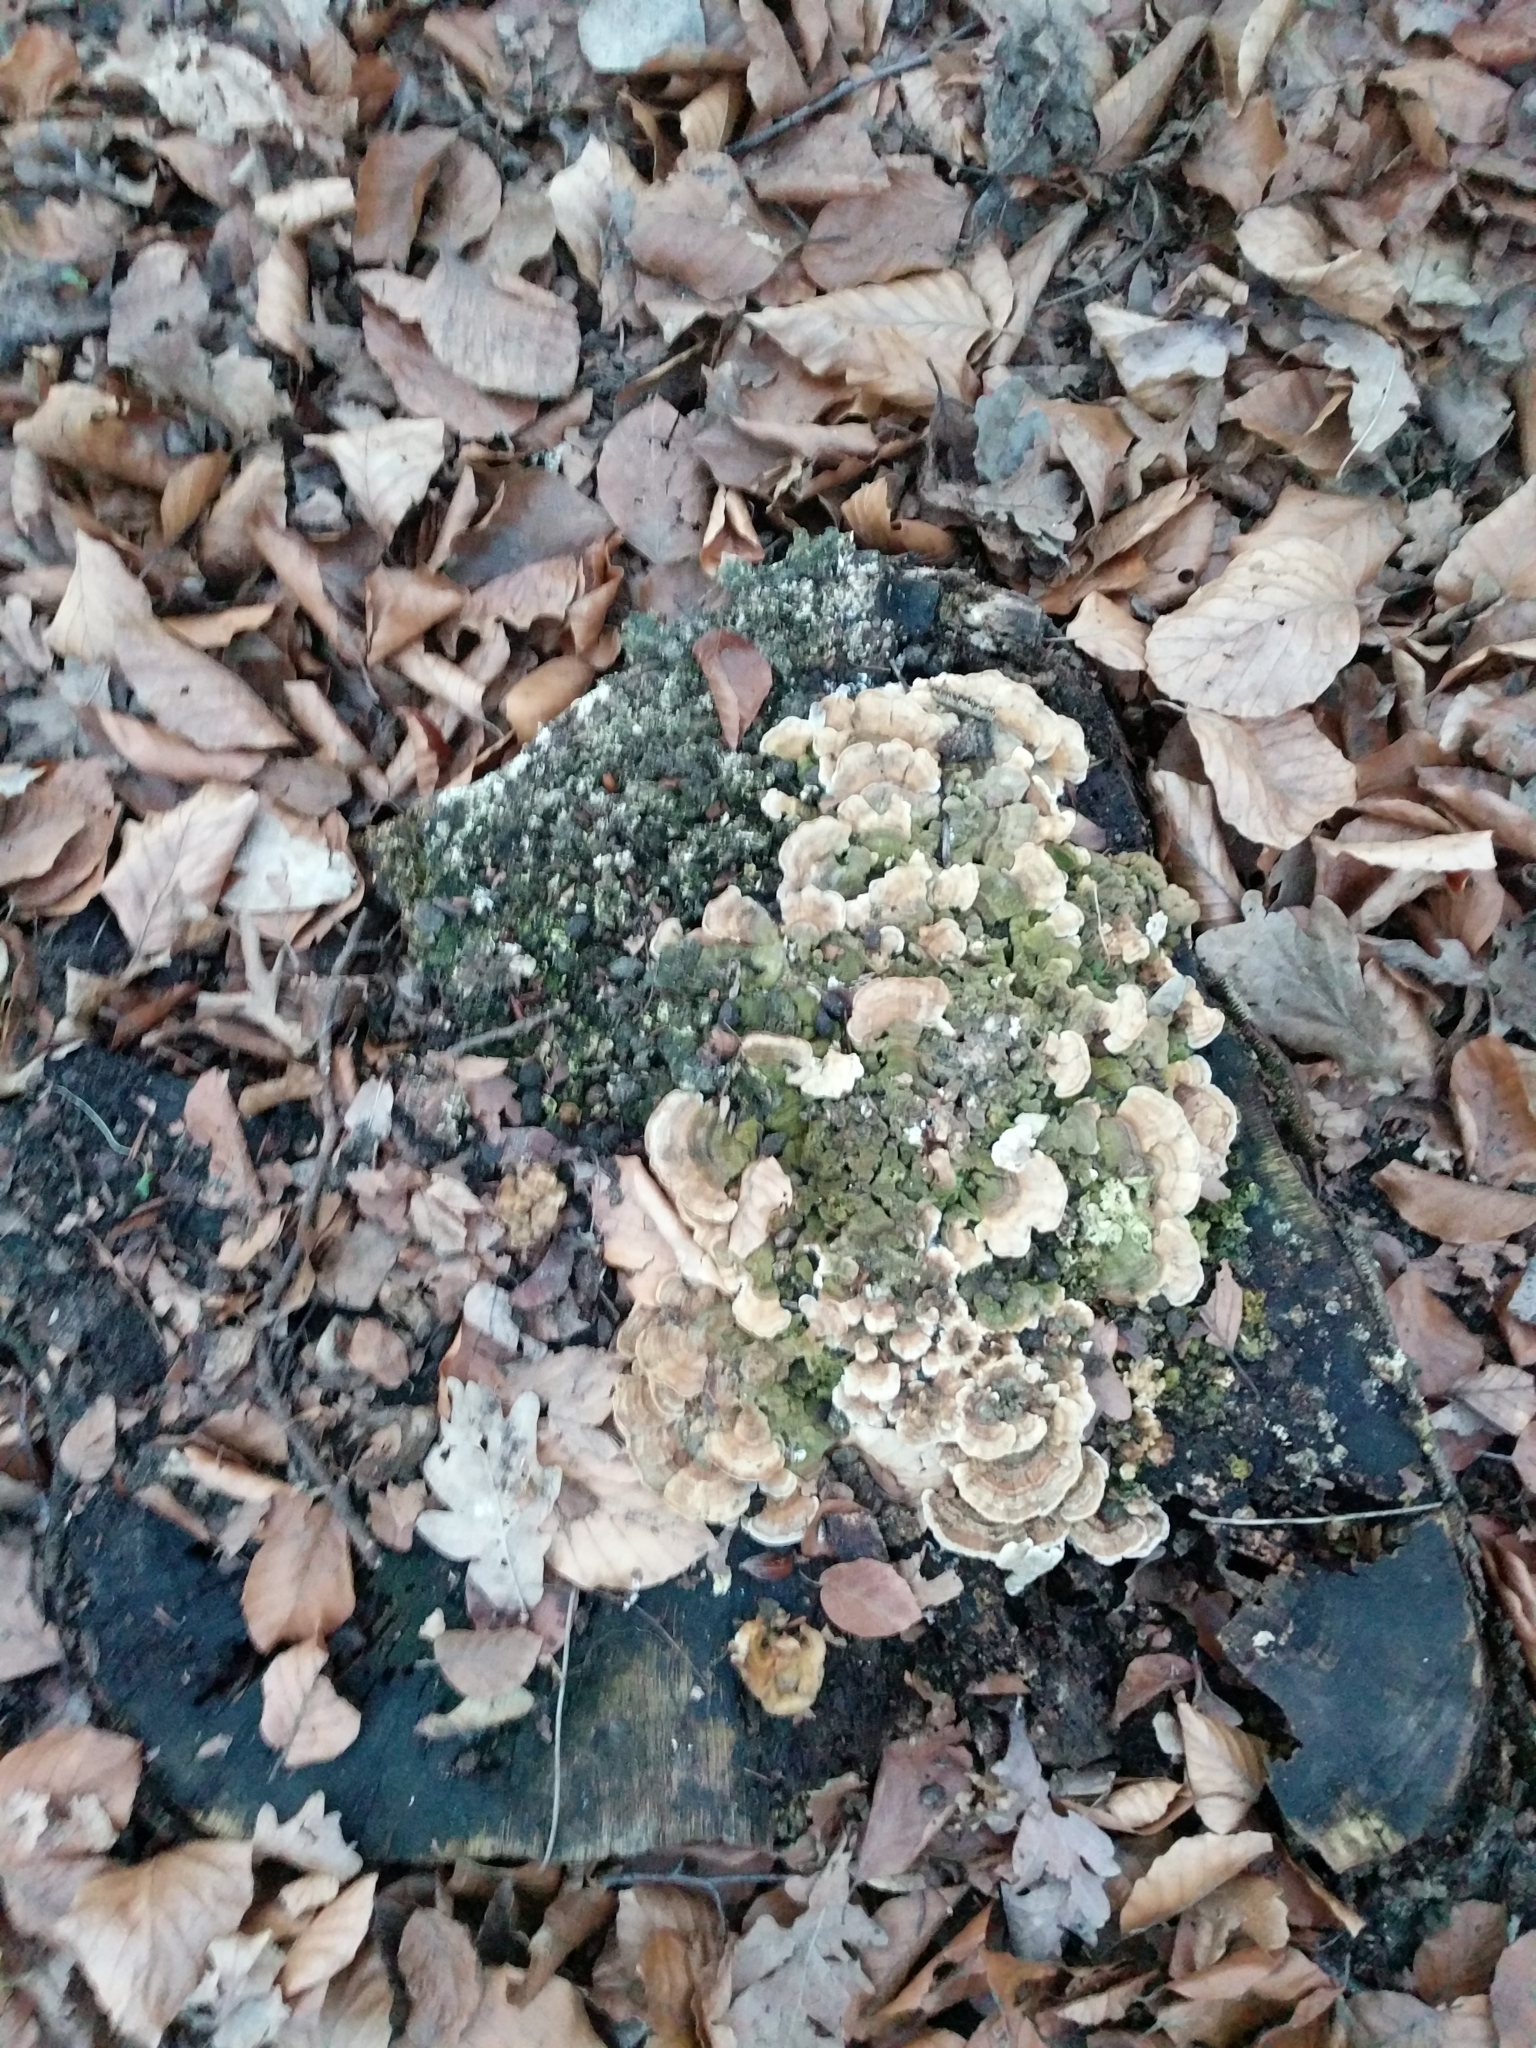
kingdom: Fungi
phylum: Basidiomycota
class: Agaricomycetes
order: Polyporales
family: Polyporaceae
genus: Trametes
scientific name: Trametes versicolor
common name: Turkeytail
